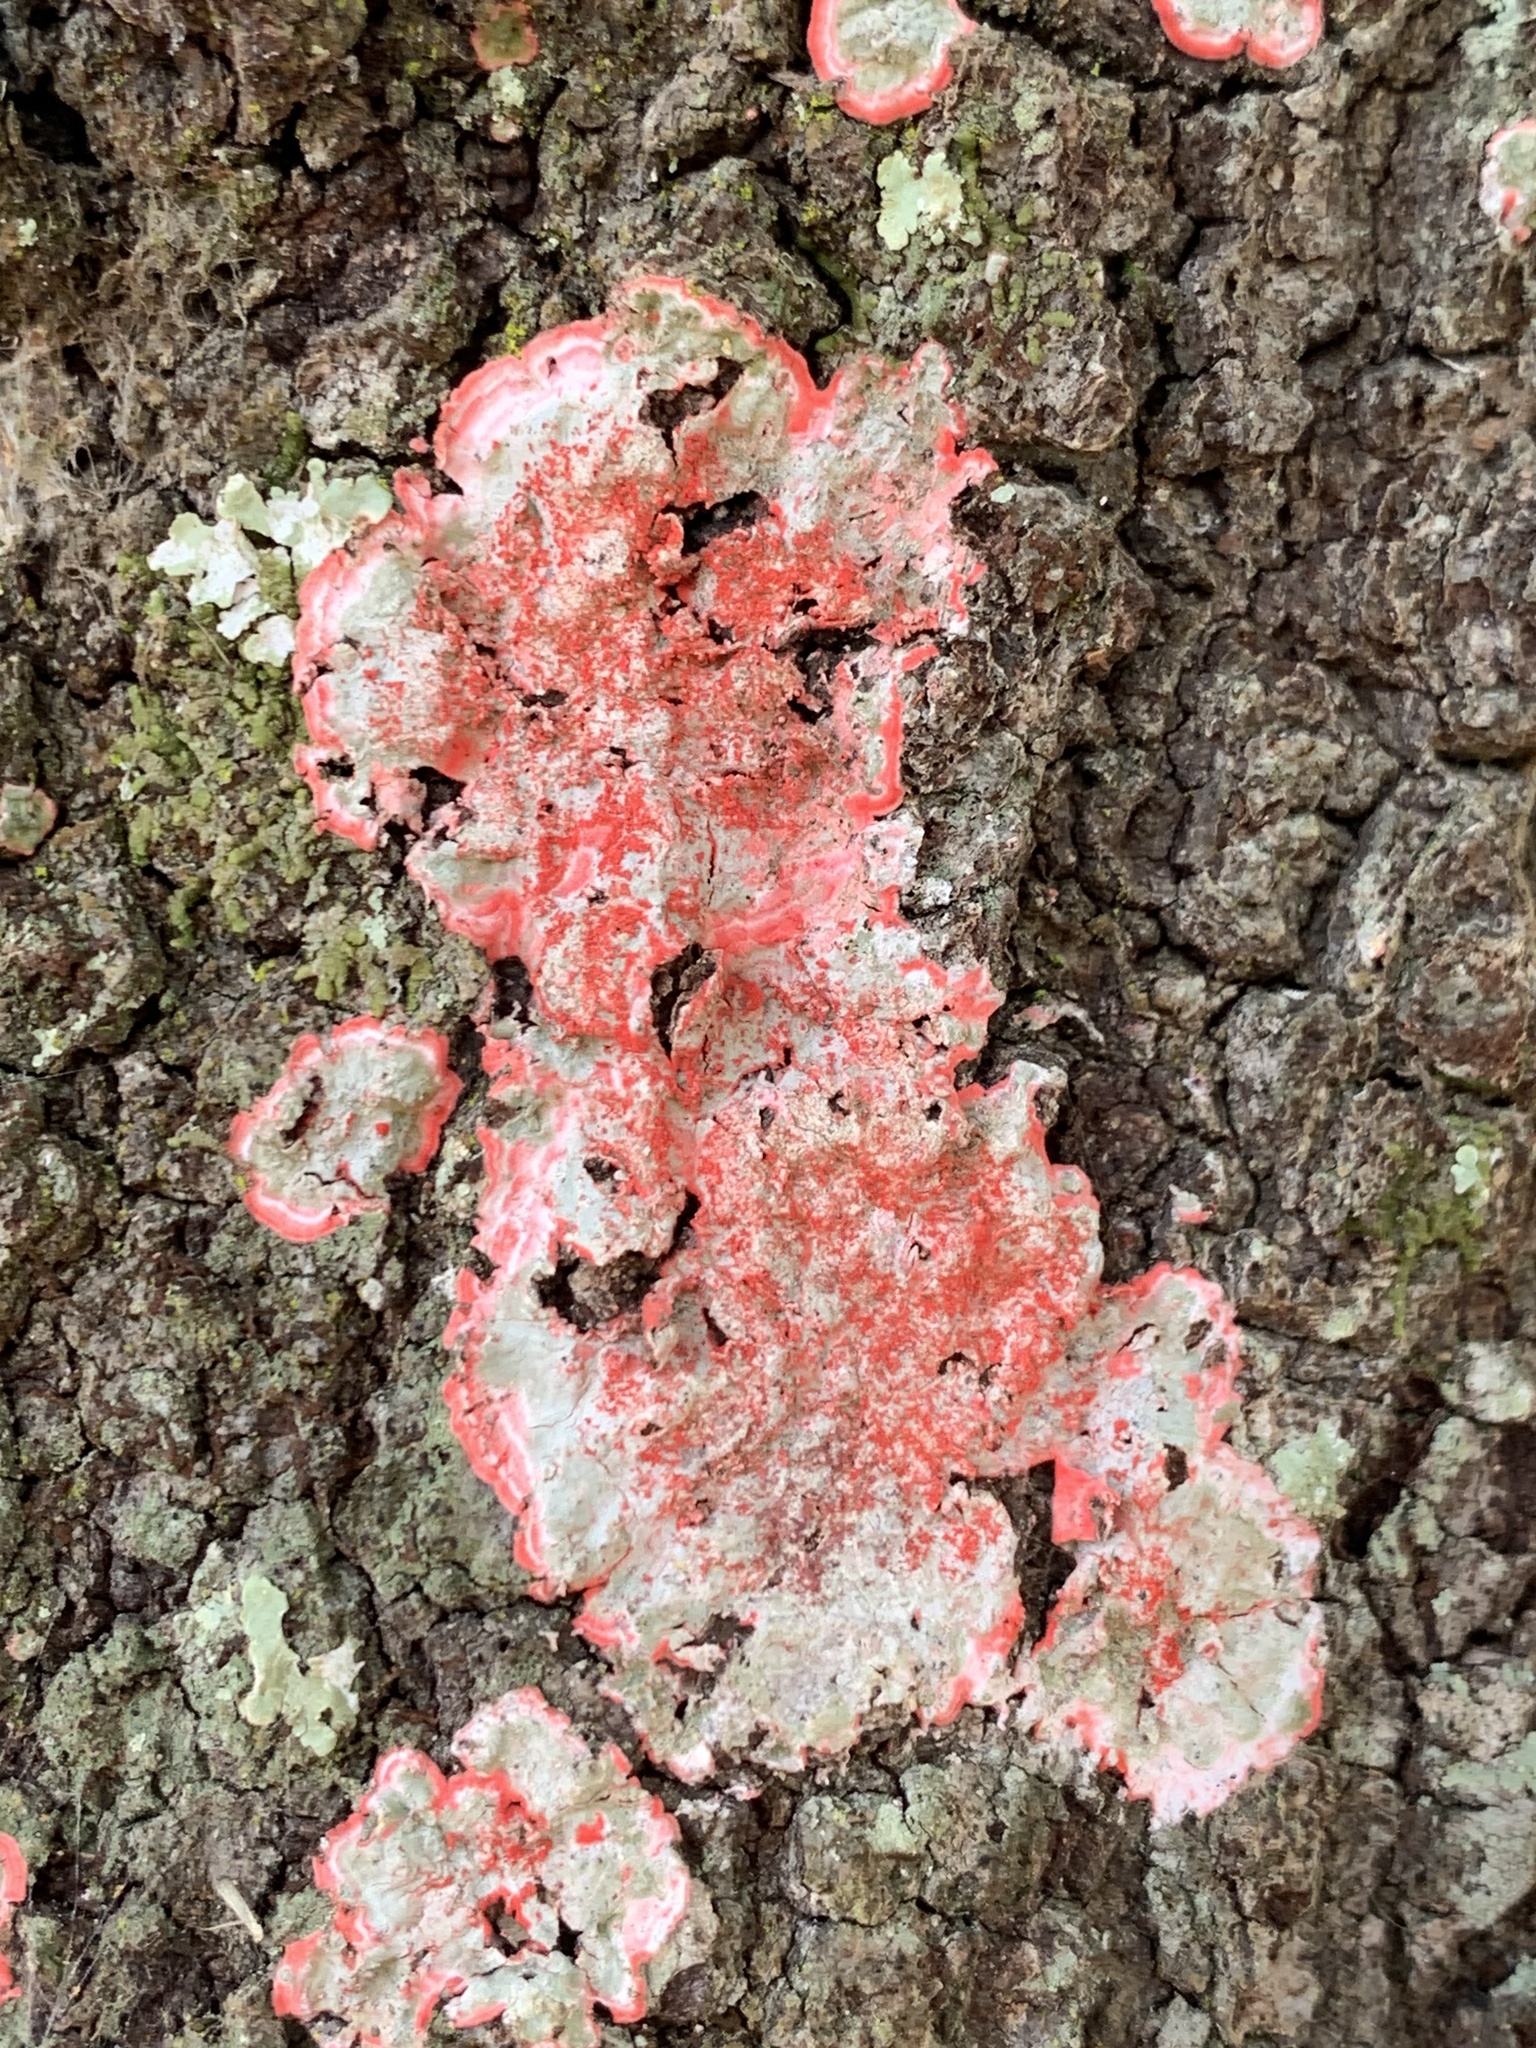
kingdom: Fungi
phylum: Ascomycota
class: Arthoniomycetes
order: Arthoniales
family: Arthoniaceae
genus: Herpothallon
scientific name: Herpothallon rubrocinctum
